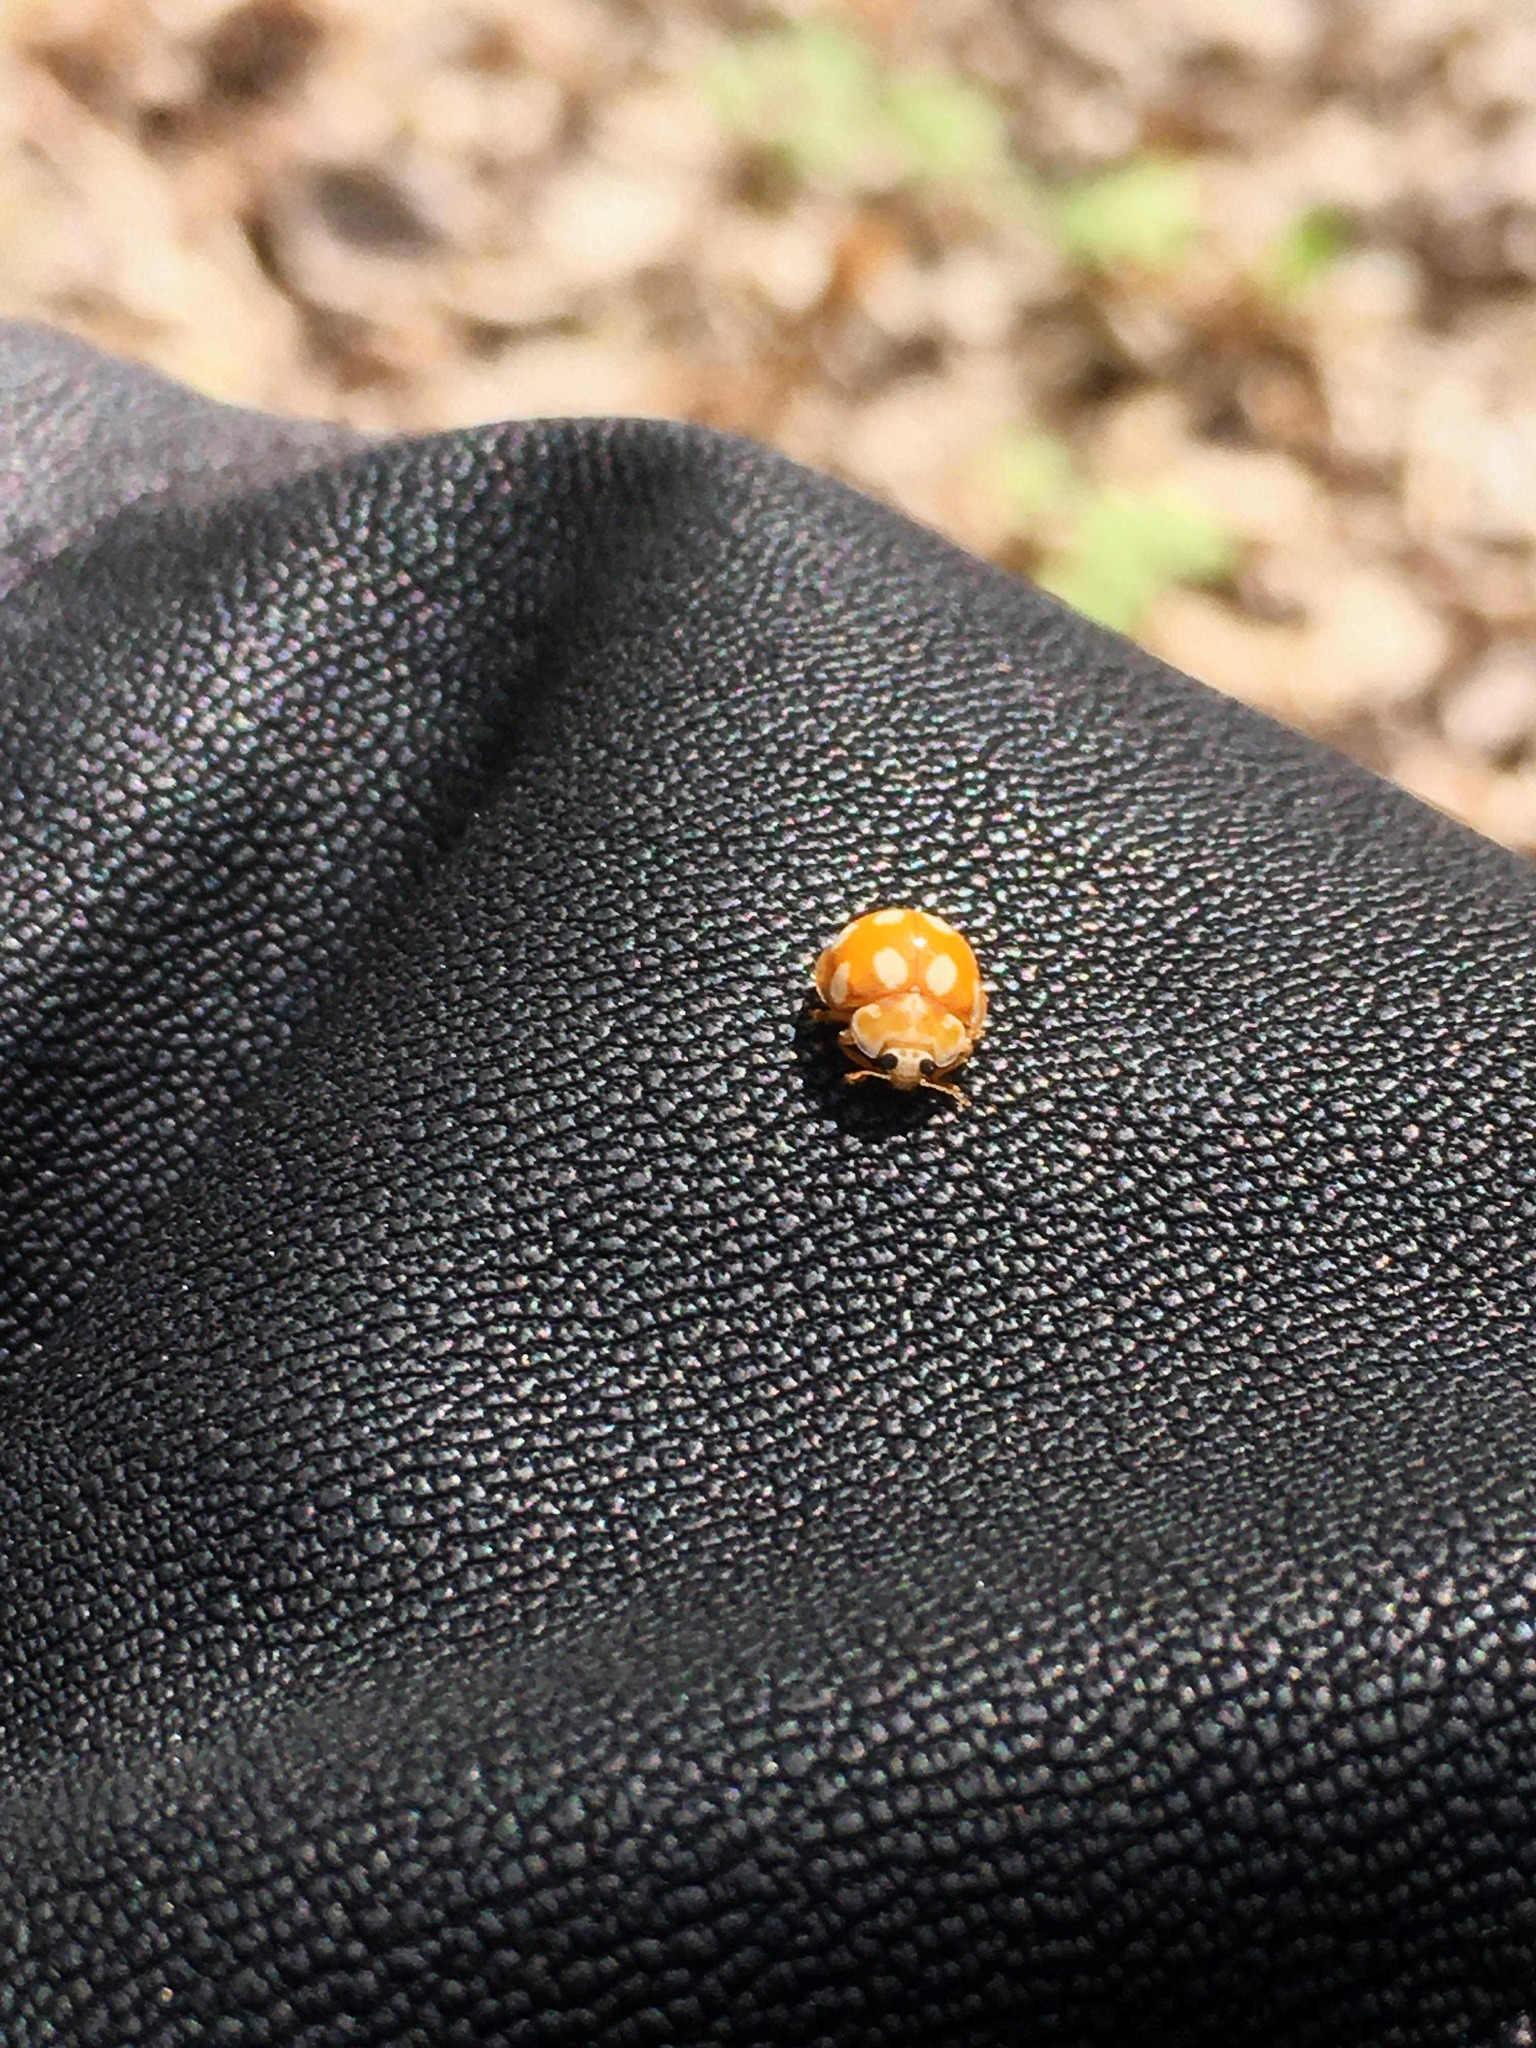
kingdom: Animalia
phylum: Arthropoda
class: Insecta
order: Coleoptera
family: Coccinellidae
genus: Calvia
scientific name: Calvia decemguttata
